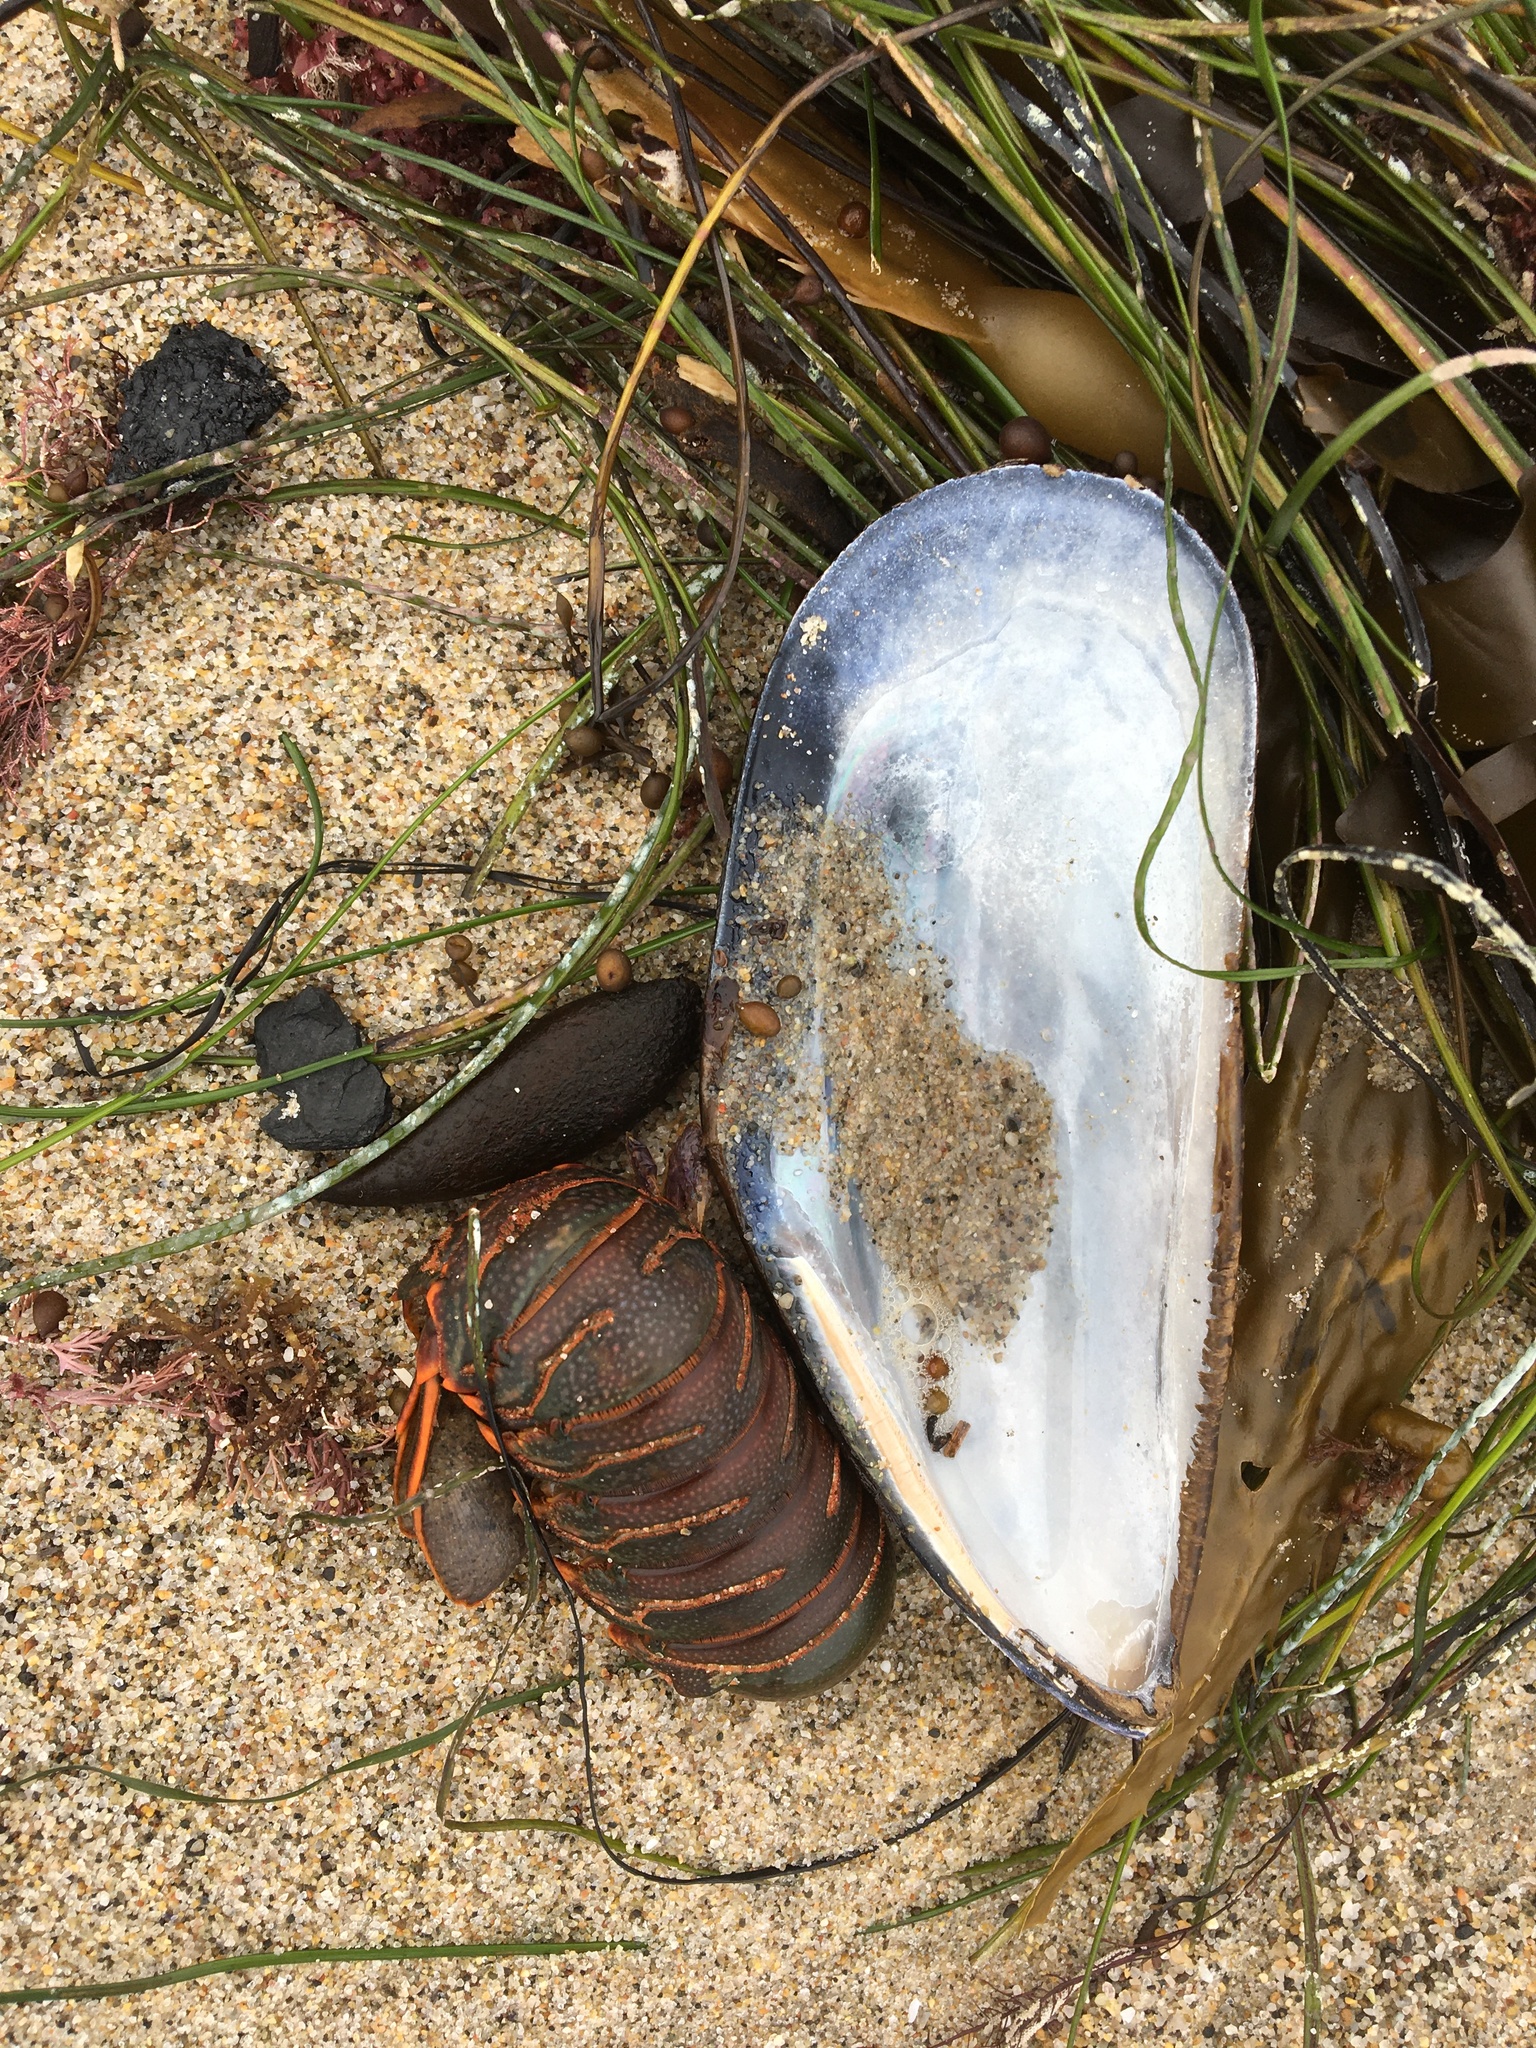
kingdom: Animalia
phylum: Mollusca
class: Bivalvia
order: Mytilida
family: Mytilidae
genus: Mytilus
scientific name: Mytilus californianus
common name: California mussel
